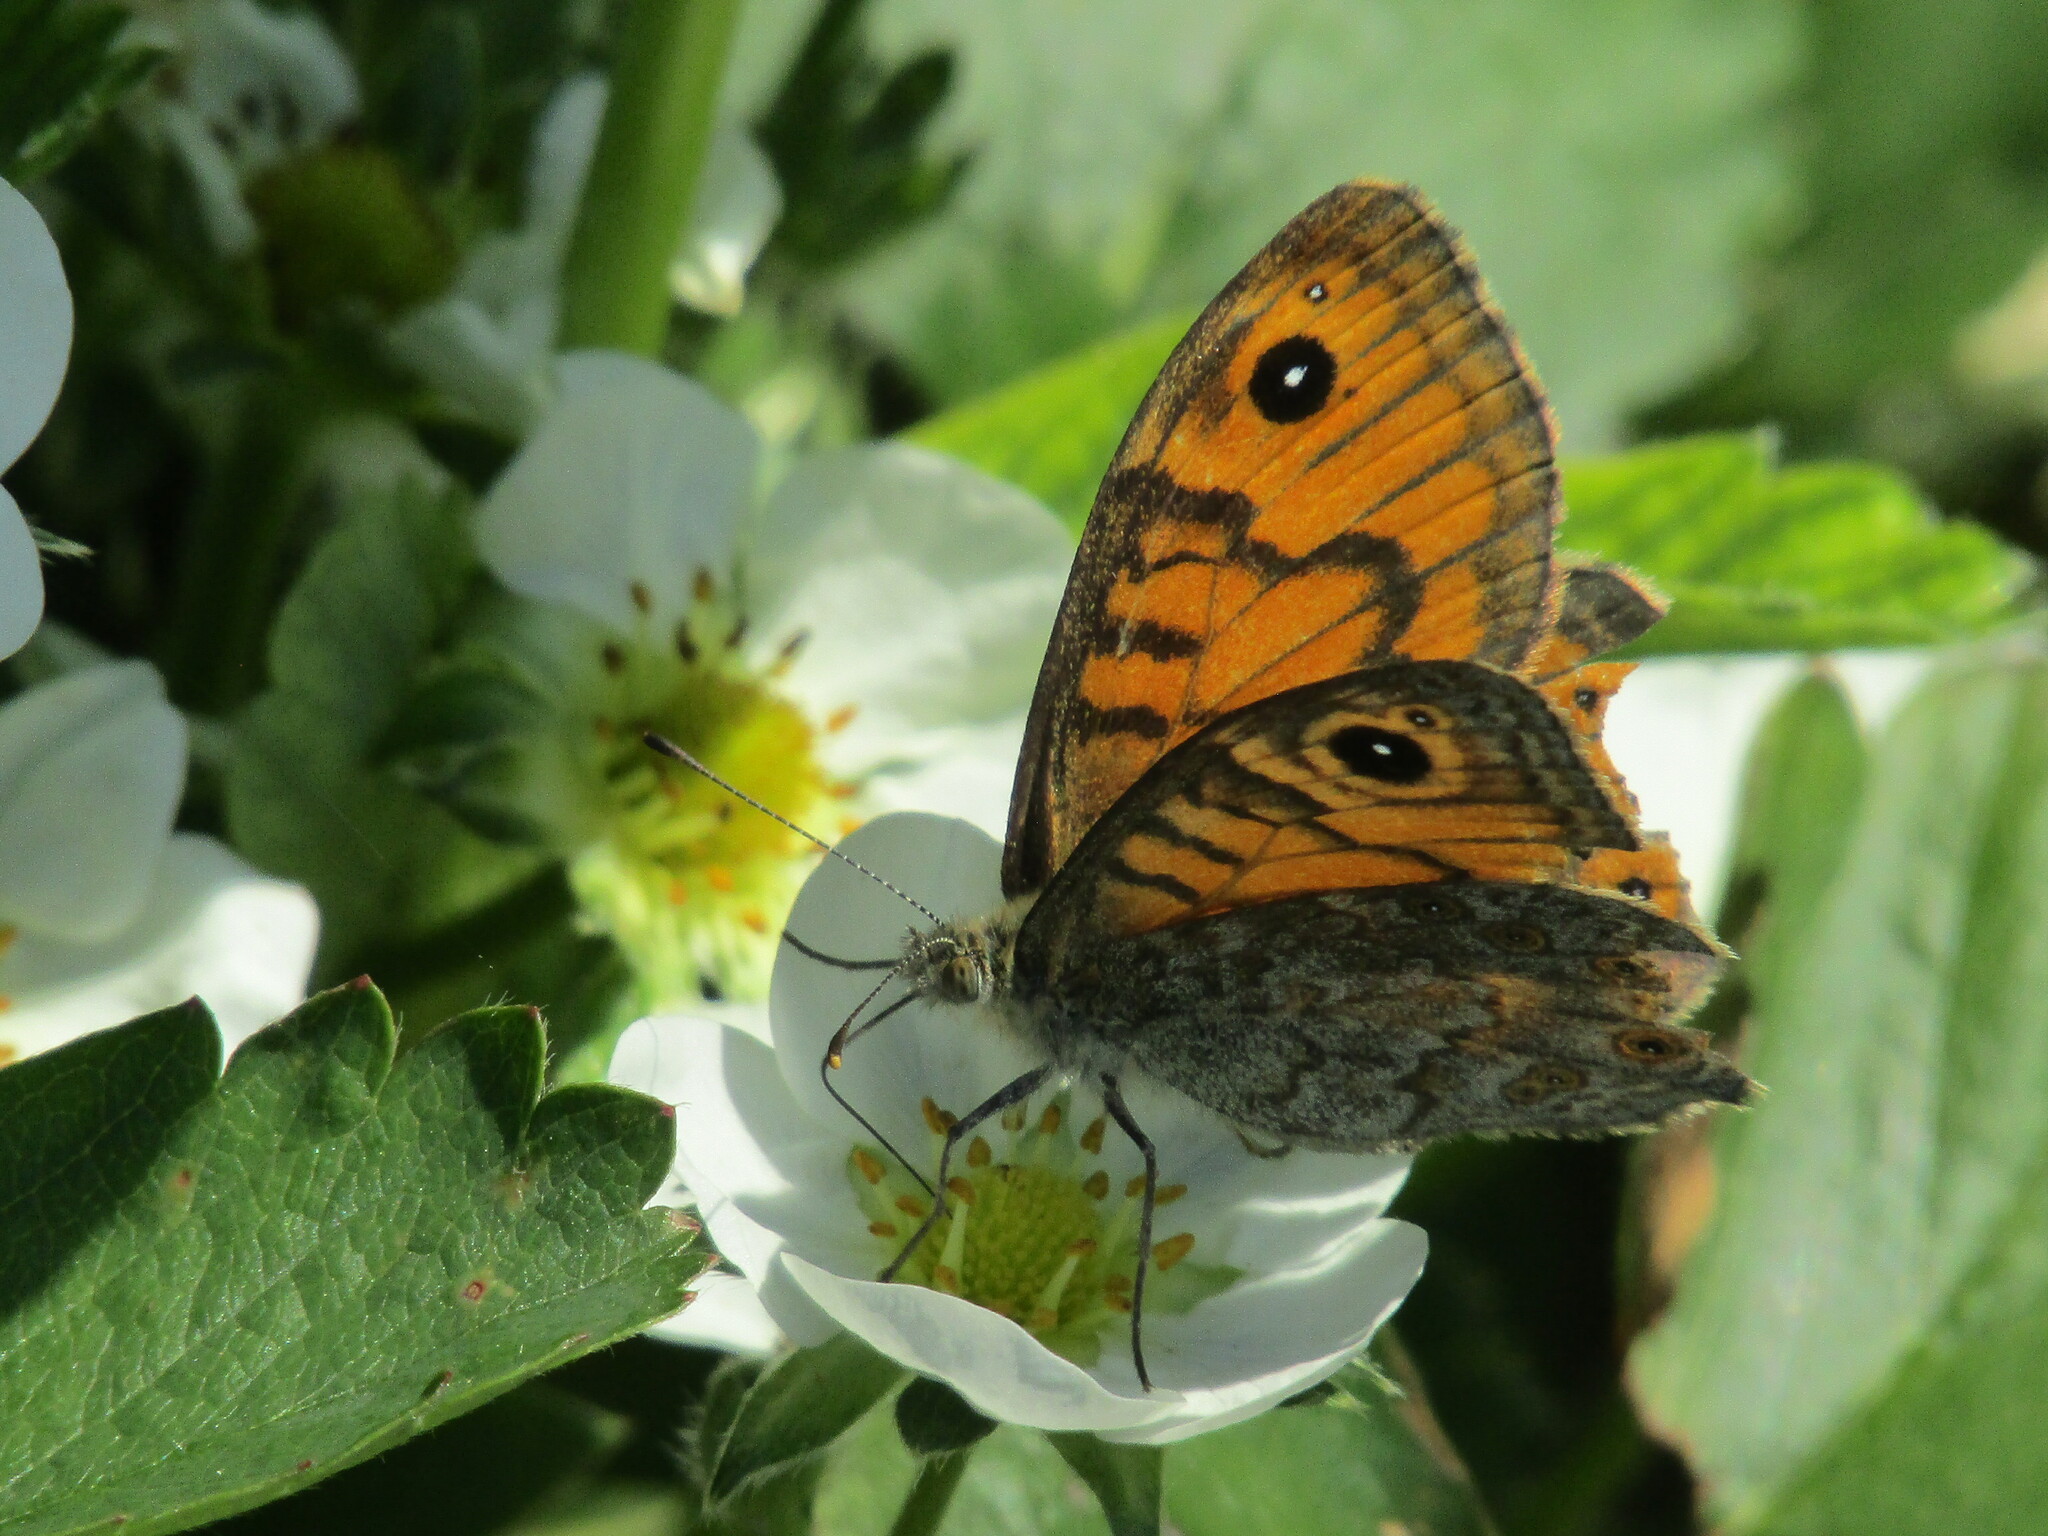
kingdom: Animalia
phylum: Arthropoda
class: Insecta
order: Lepidoptera
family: Nymphalidae
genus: Pararge
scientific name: Pararge Lasiommata megera
